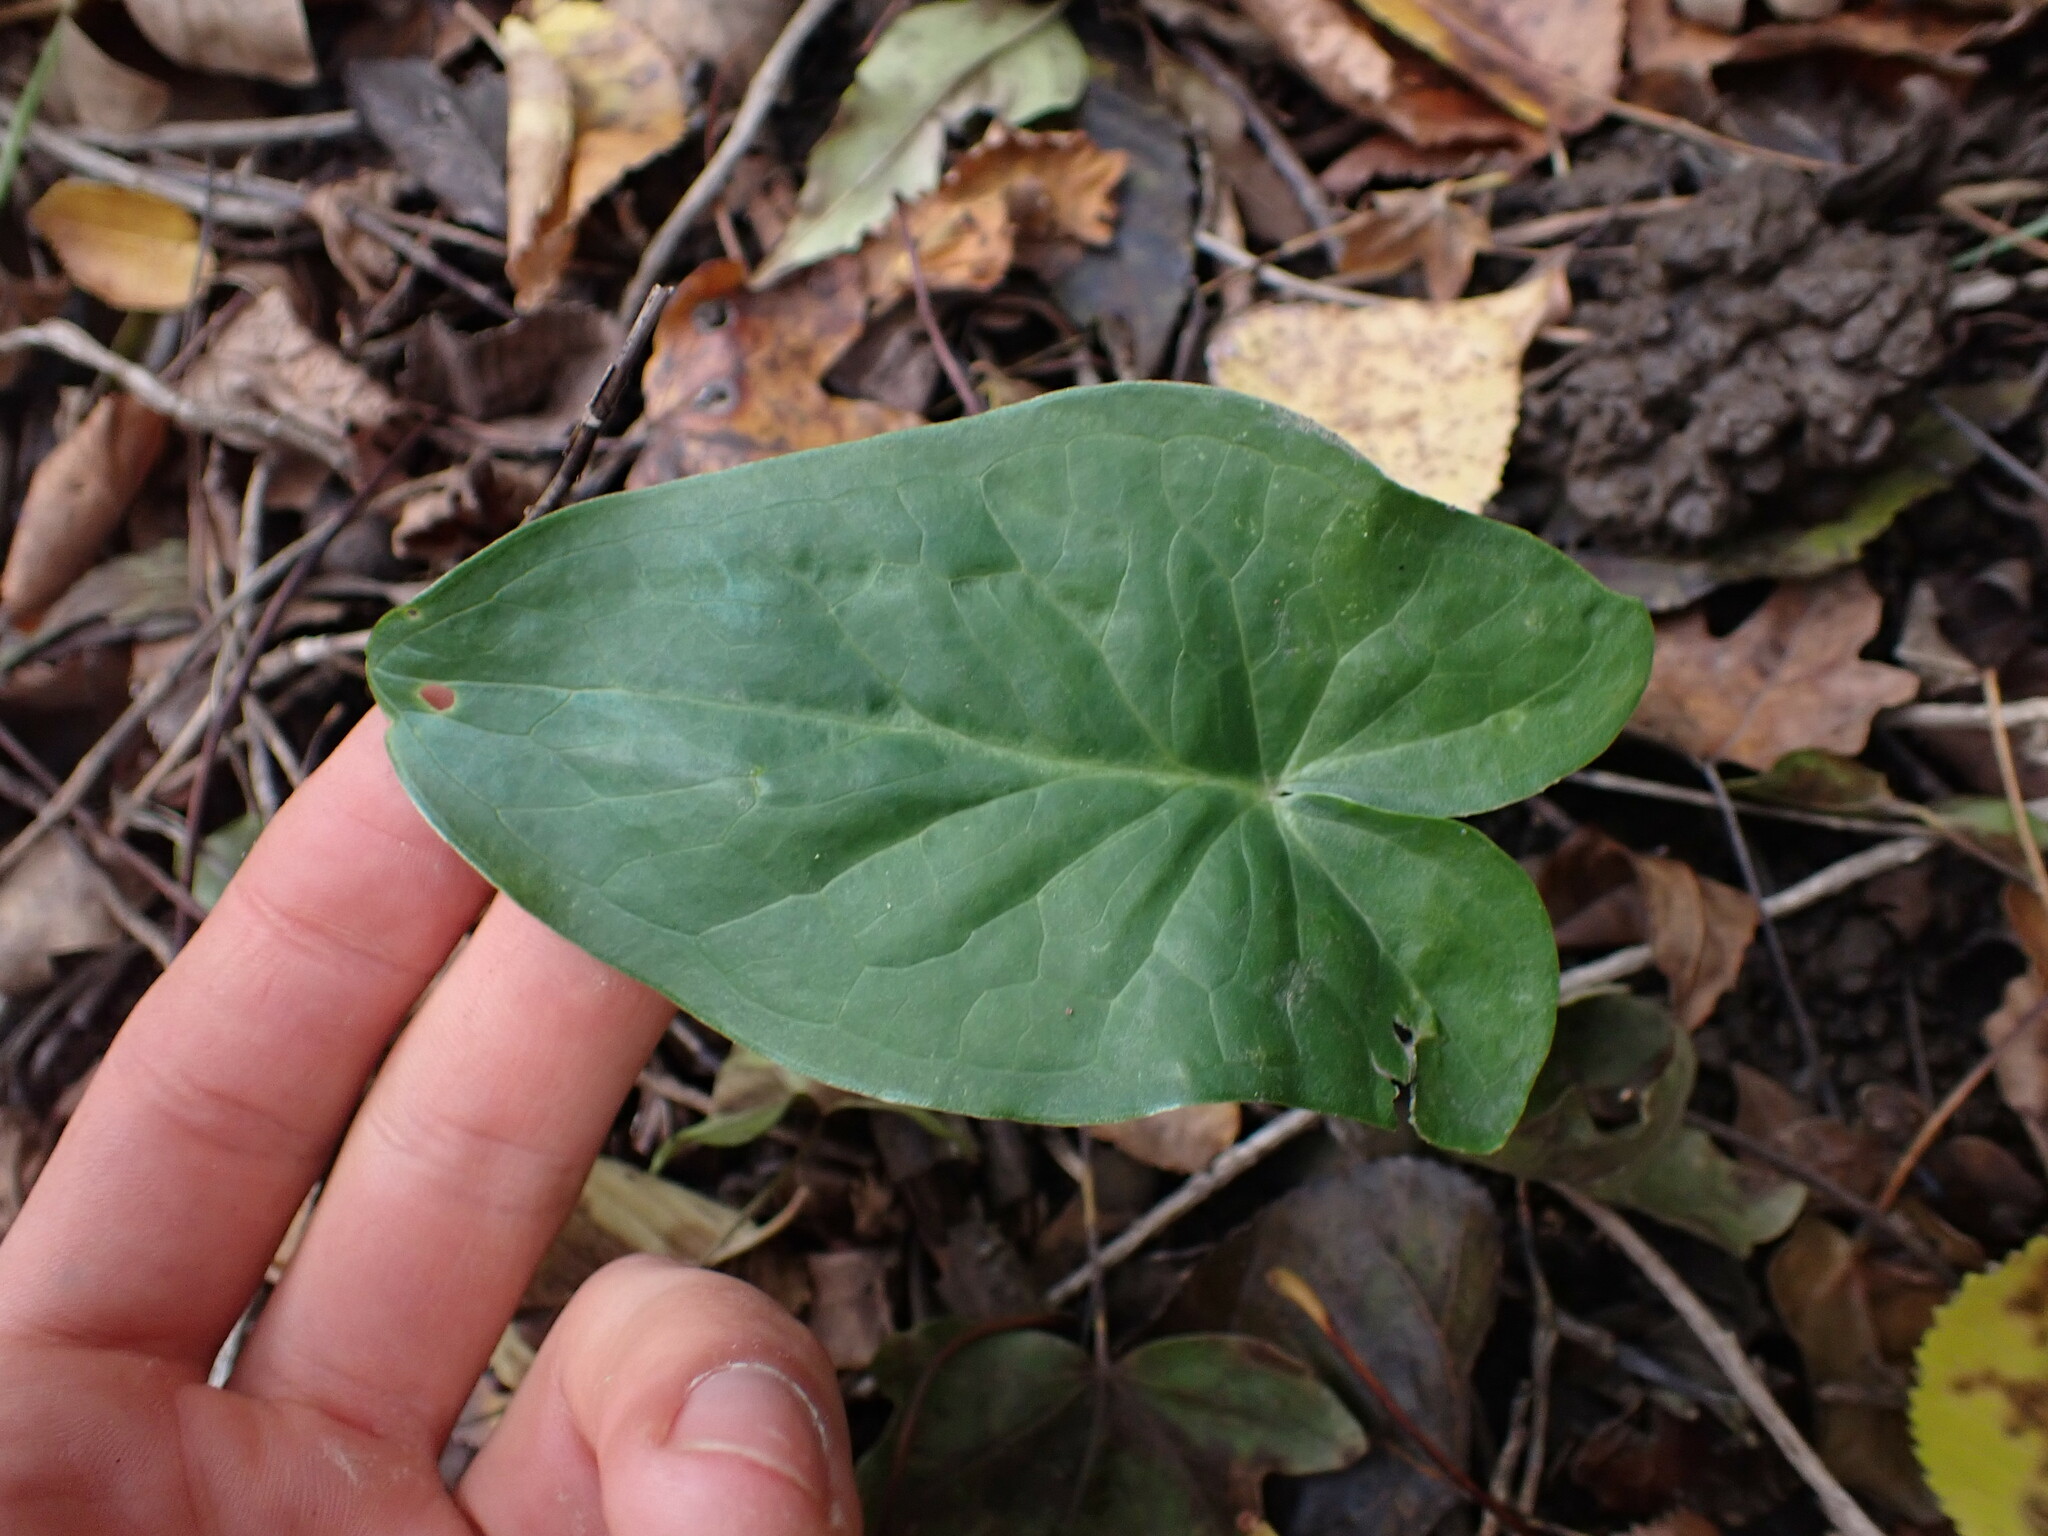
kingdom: Plantae
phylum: Tracheophyta
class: Liliopsida
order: Alismatales
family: Araceae
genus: Arum
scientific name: Arum italicum
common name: Italian lords-and-ladies
